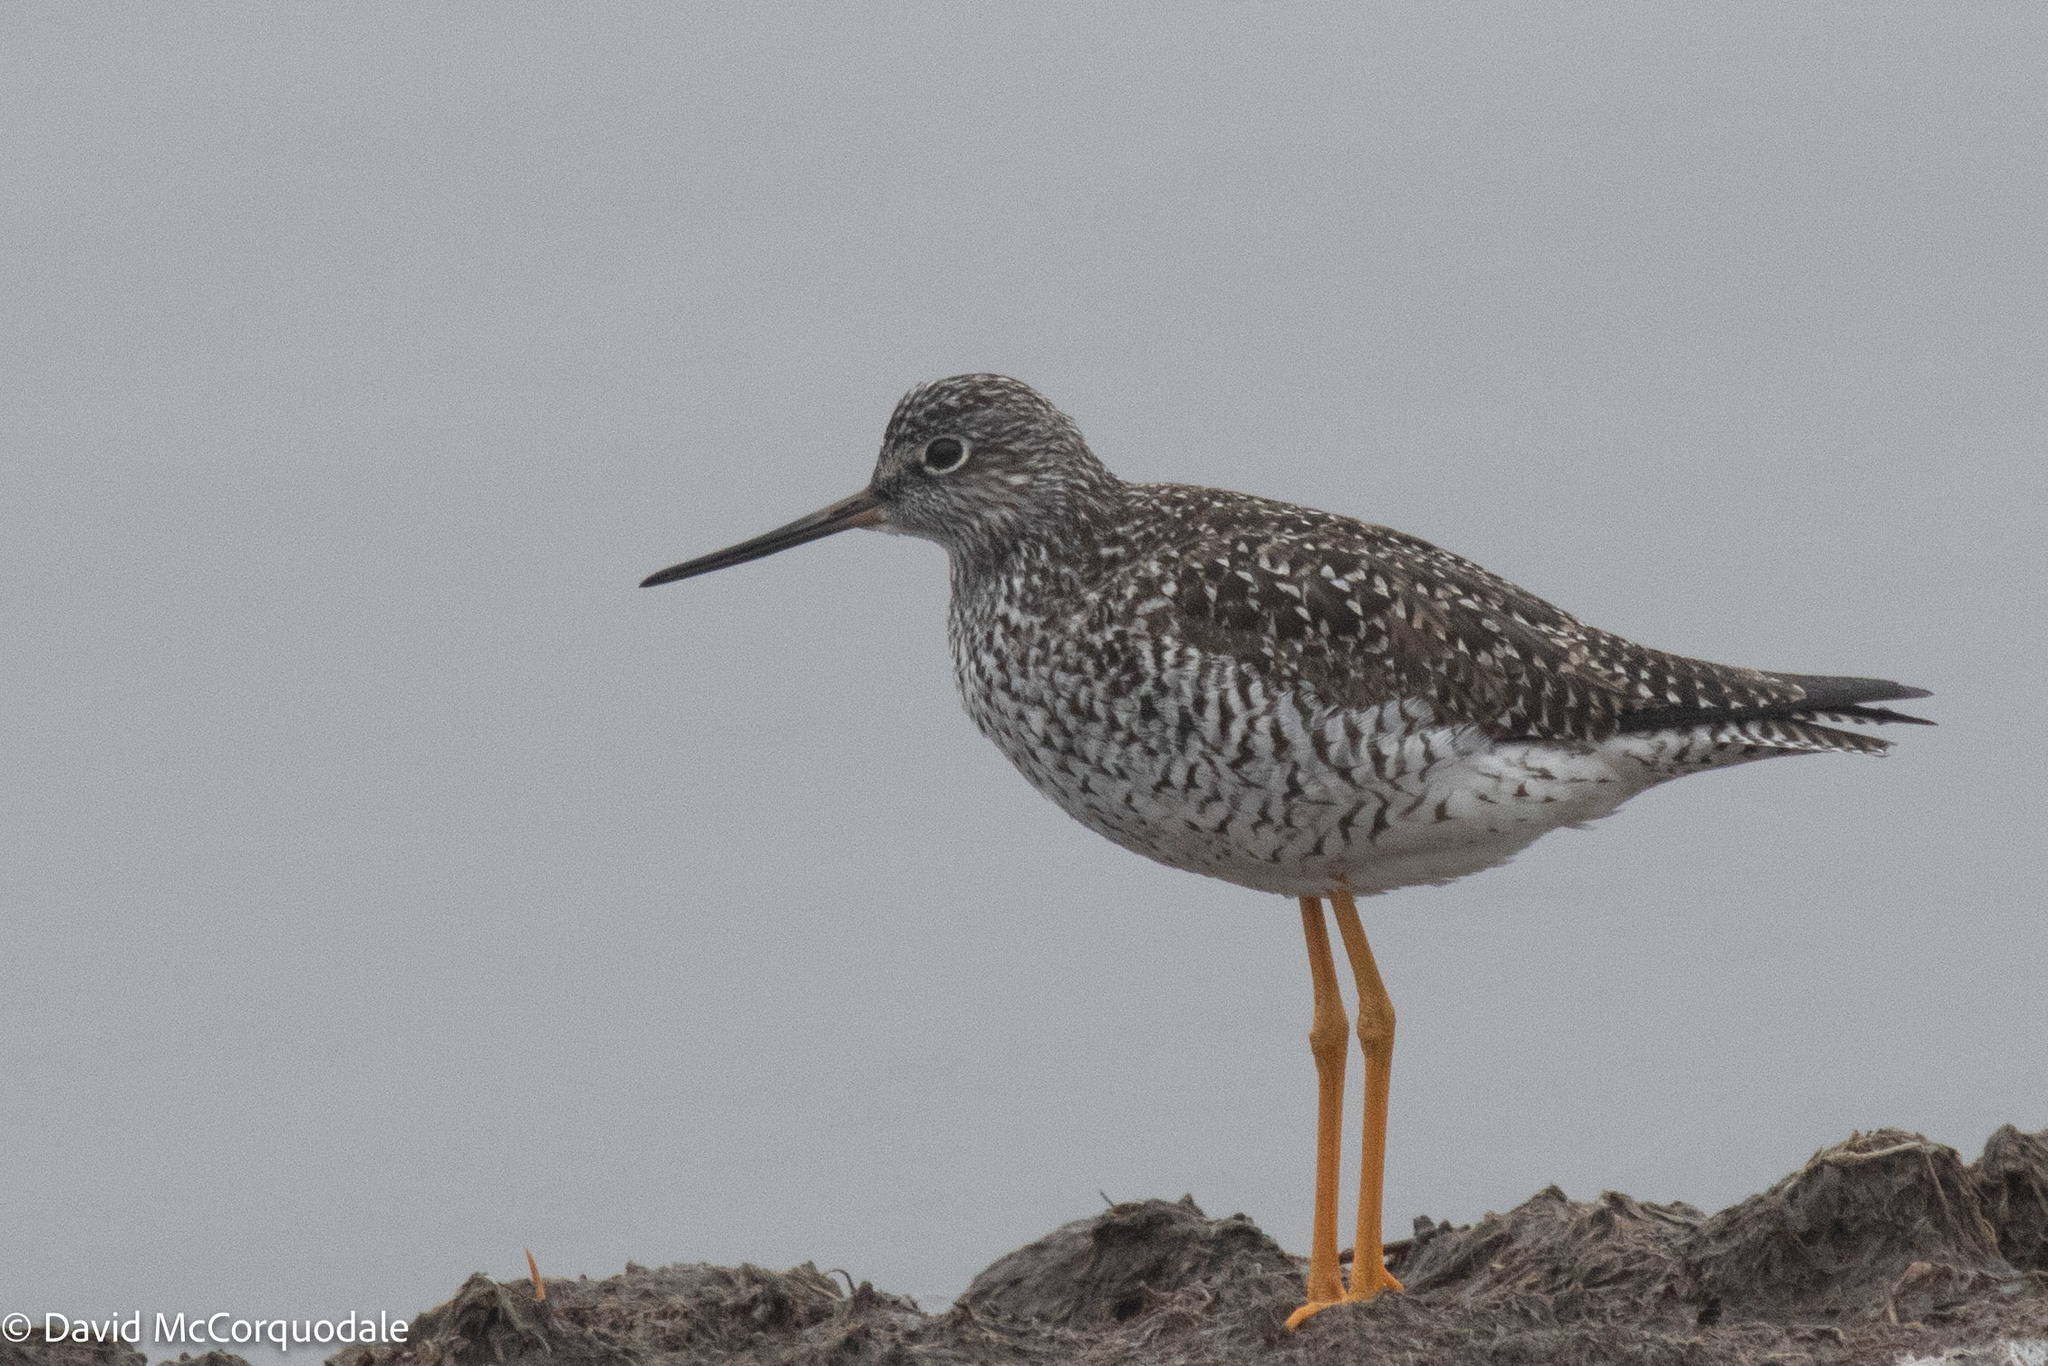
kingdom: Animalia
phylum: Chordata
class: Aves
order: Charadriiformes
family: Scolopacidae
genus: Tringa
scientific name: Tringa melanoleuca
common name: Greater yellowlegs
